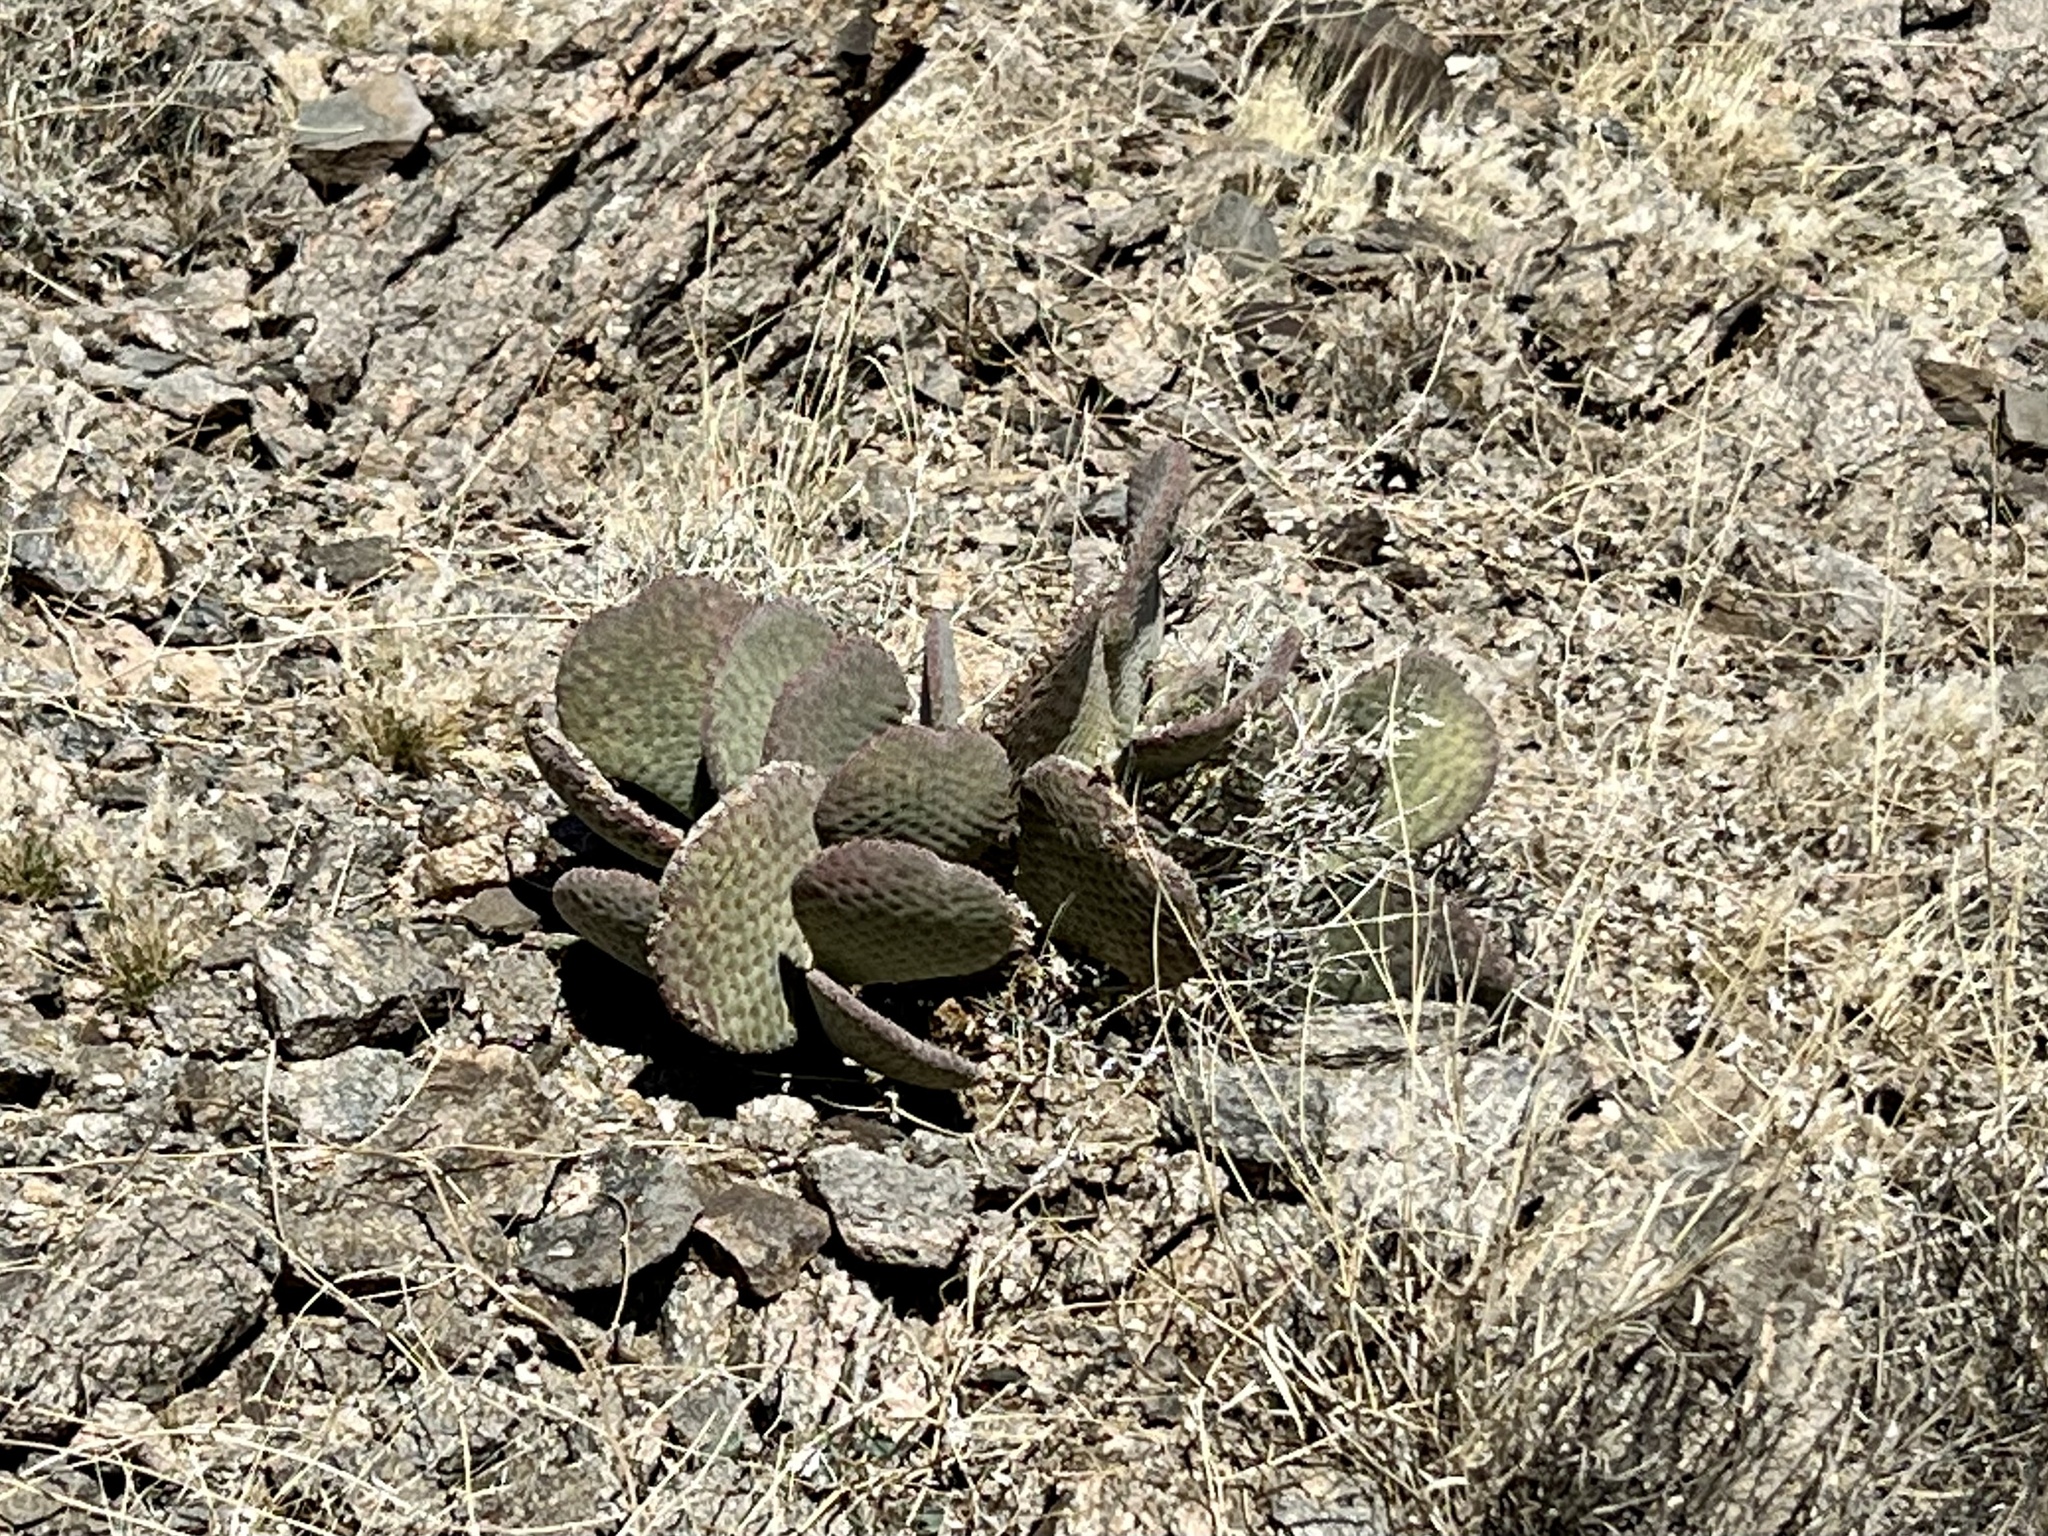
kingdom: Plantae
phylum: Tracheophyta
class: Magnoliopsida
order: Caryophyllales
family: Cactaceae
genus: Opuntia
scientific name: Opuntia basilaris
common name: Beavertail prickly-pear
